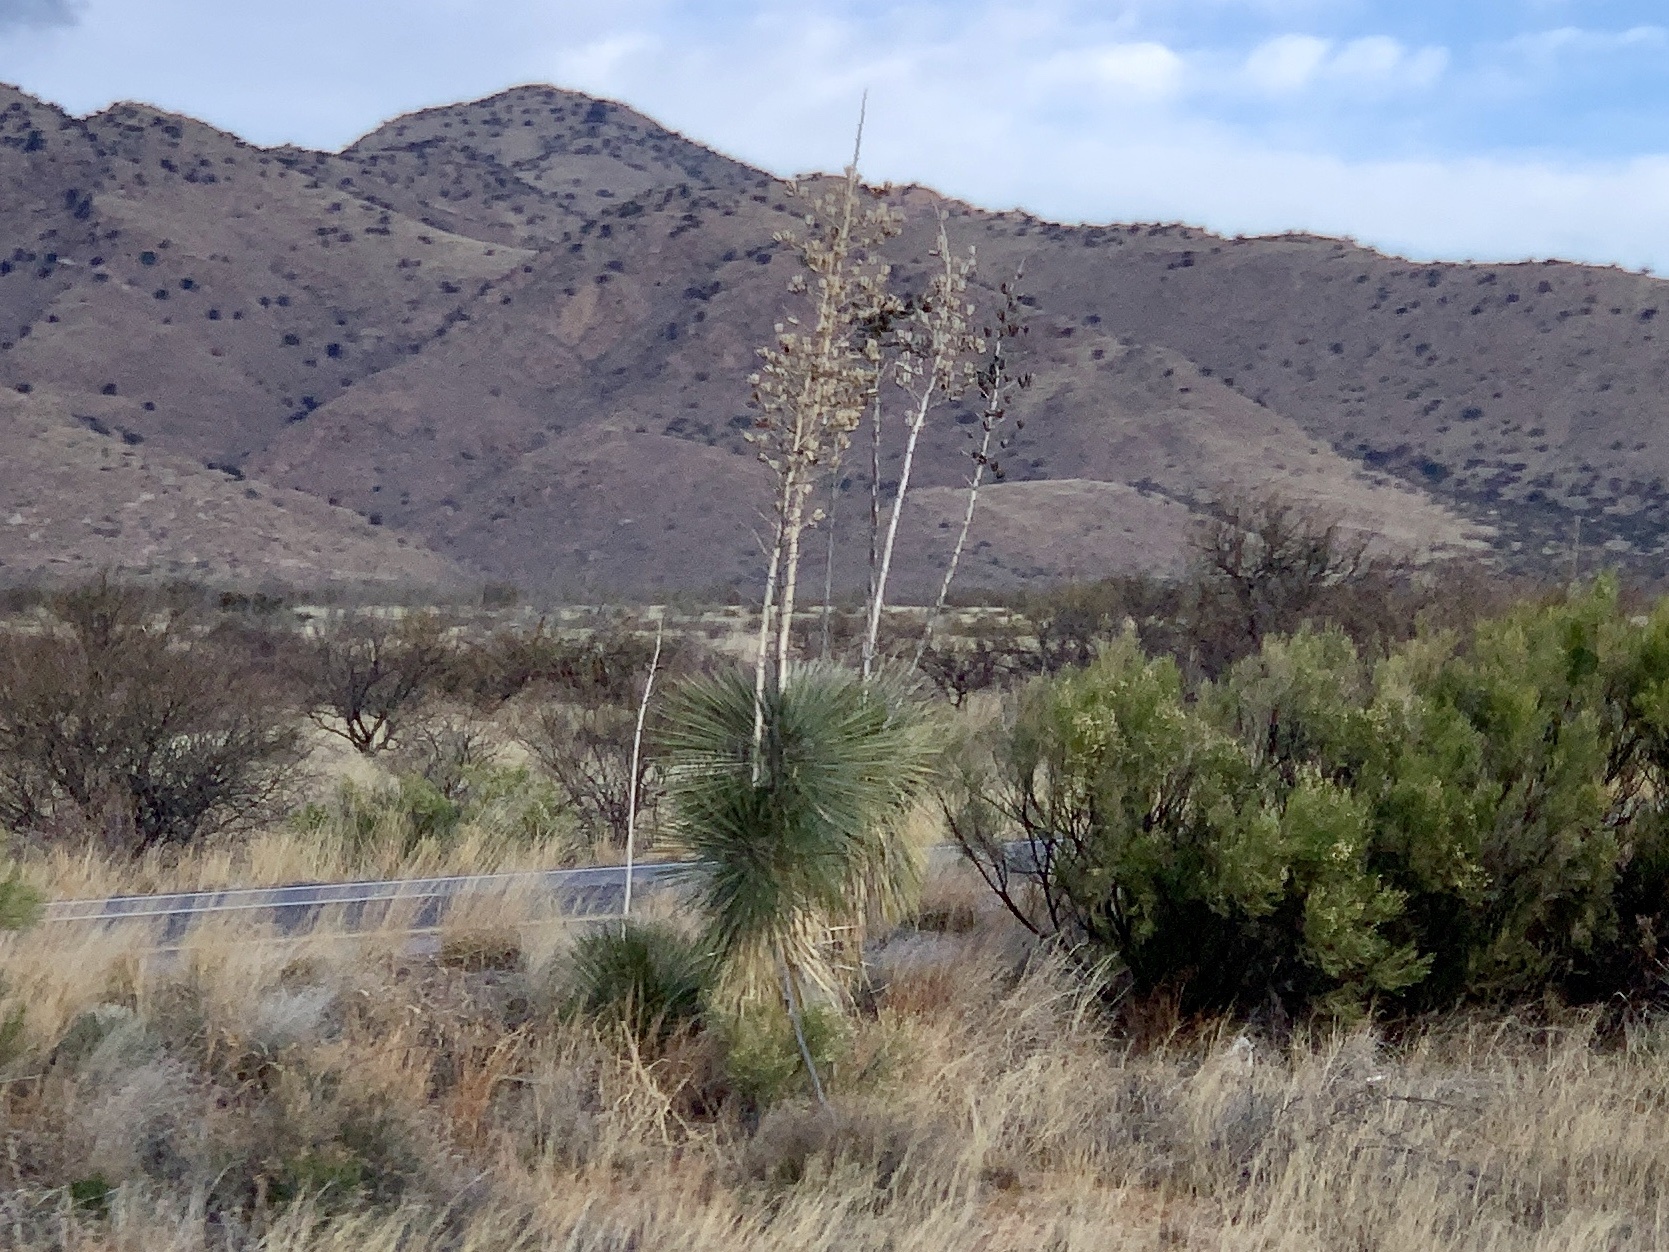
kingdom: Plantae
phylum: Tracheophyta
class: Liliopsida
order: Asparagales
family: Asparagaceae
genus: Yucca
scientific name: Yucca elata
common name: Palmella
